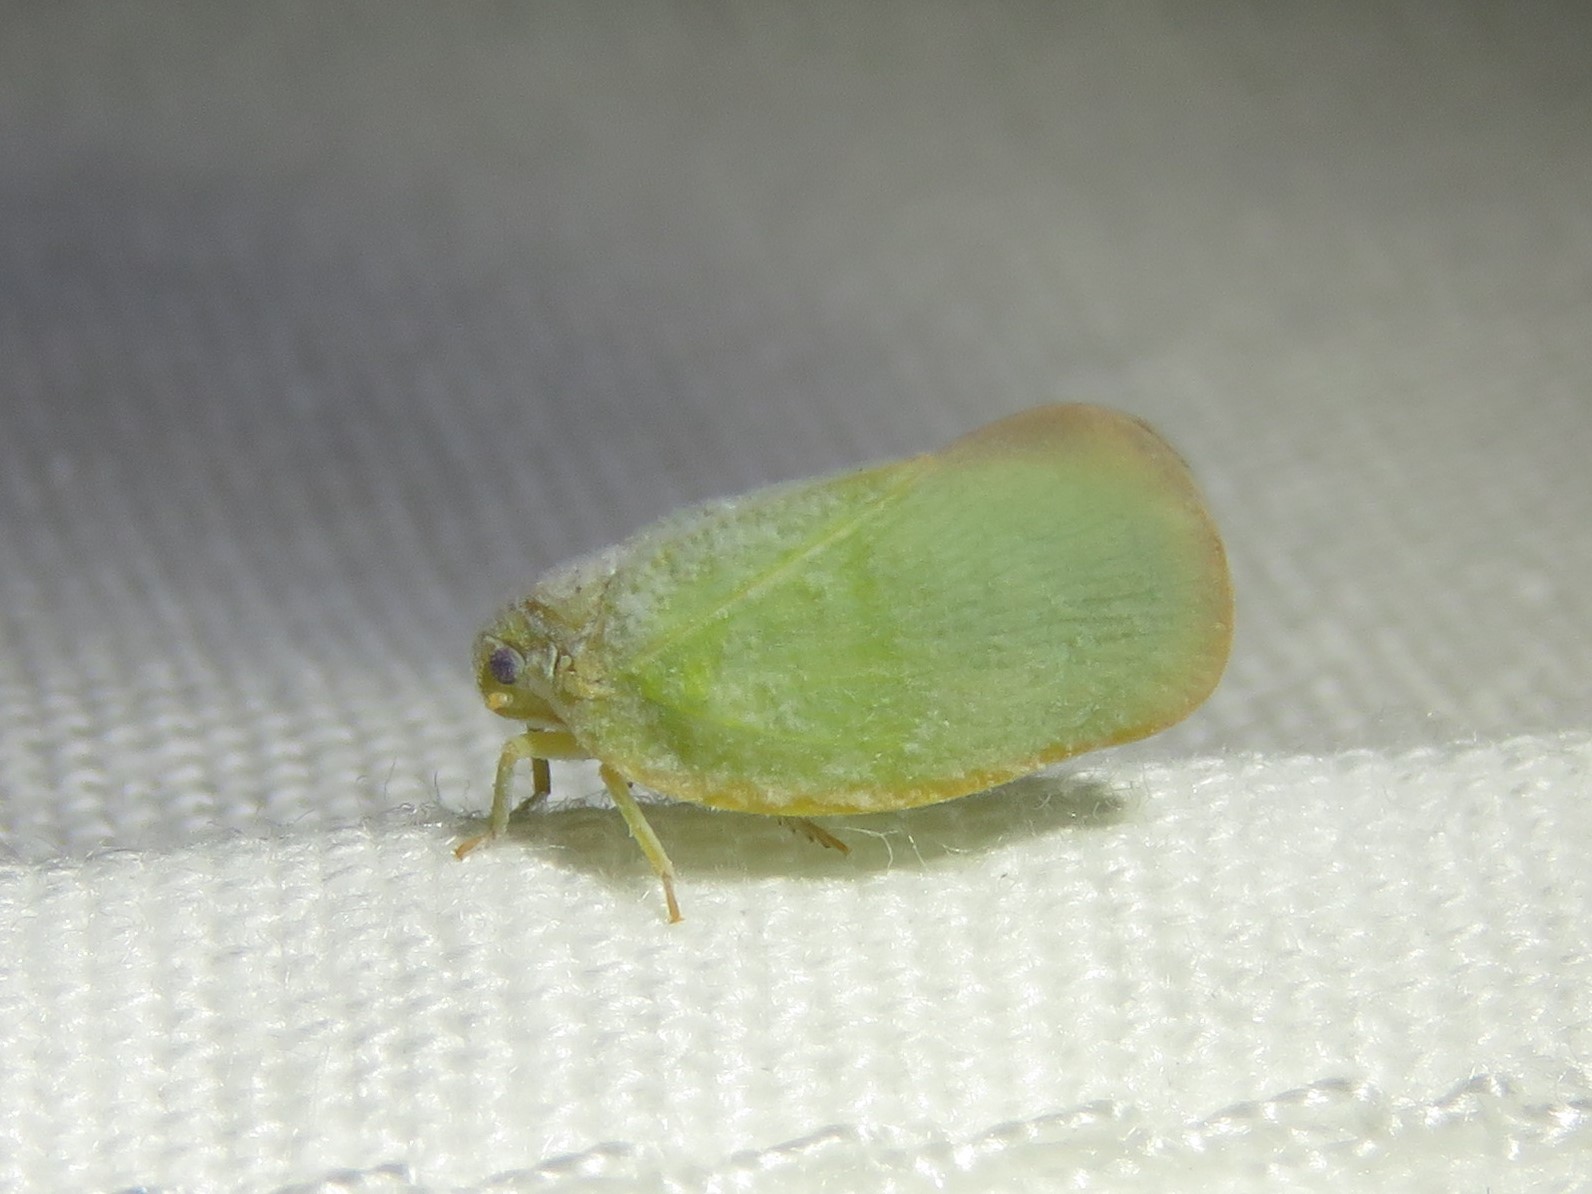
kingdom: Animalia
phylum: Arthropoda
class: Insecta
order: Hemiptera
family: Flatidae
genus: Ormenoides
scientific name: Ormenoides venusta
